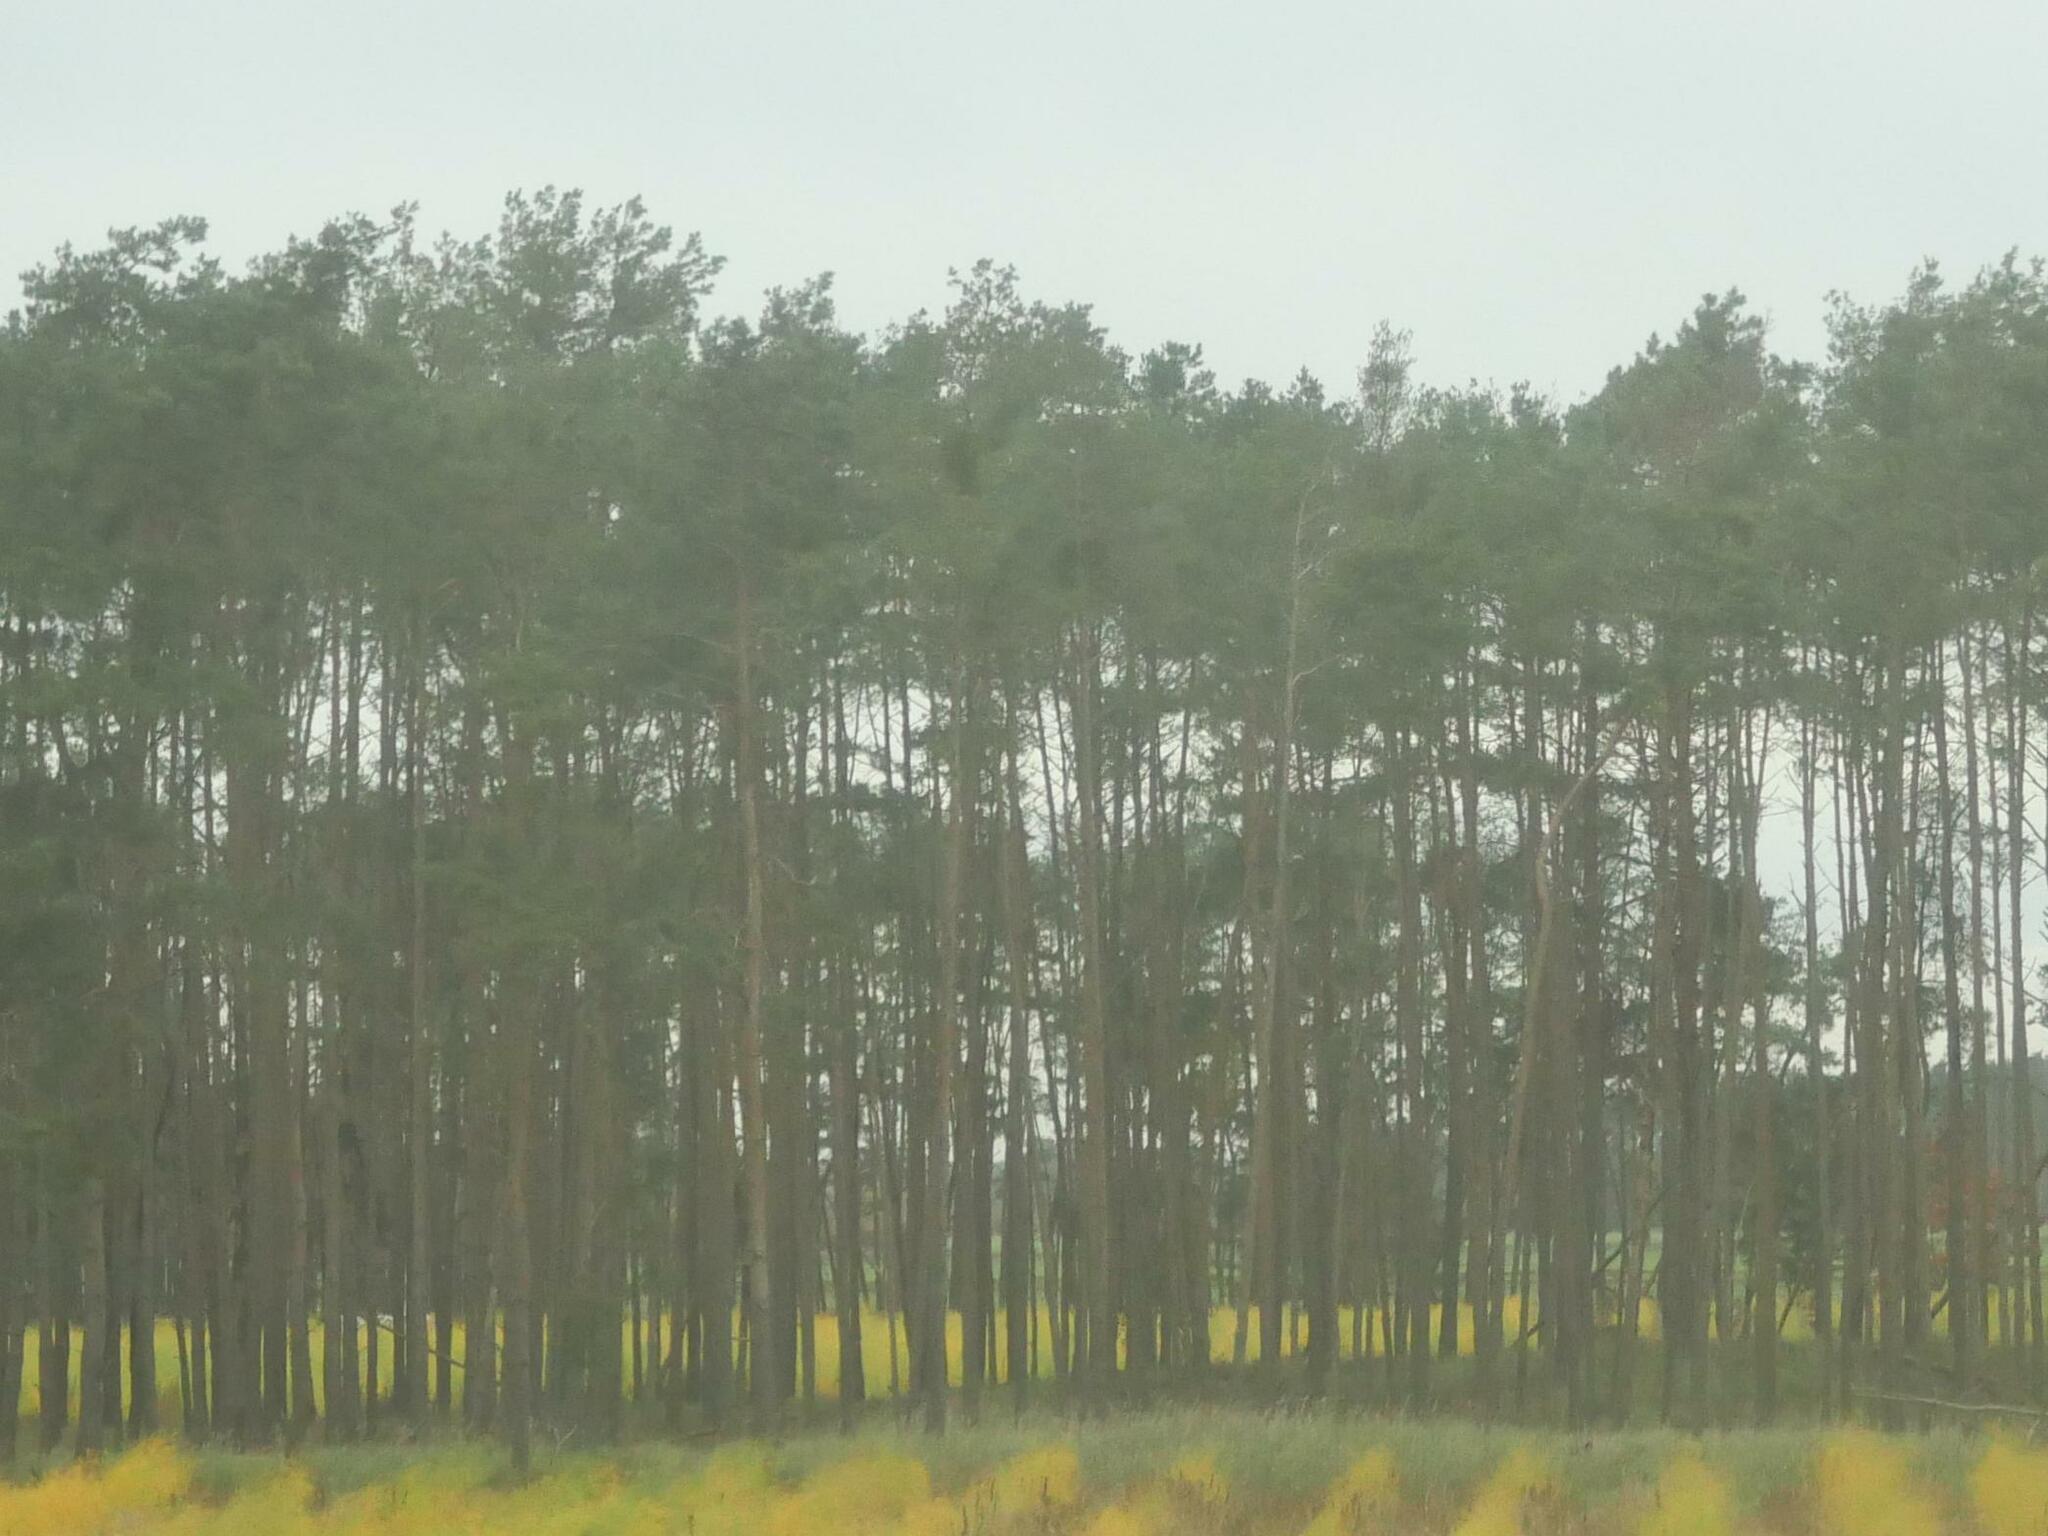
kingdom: Plantae
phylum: Tracheophyta
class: Pinopsida
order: Pinales
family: Pinaceae
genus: Pinus
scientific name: Pinus sylvestris
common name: Scots pine
